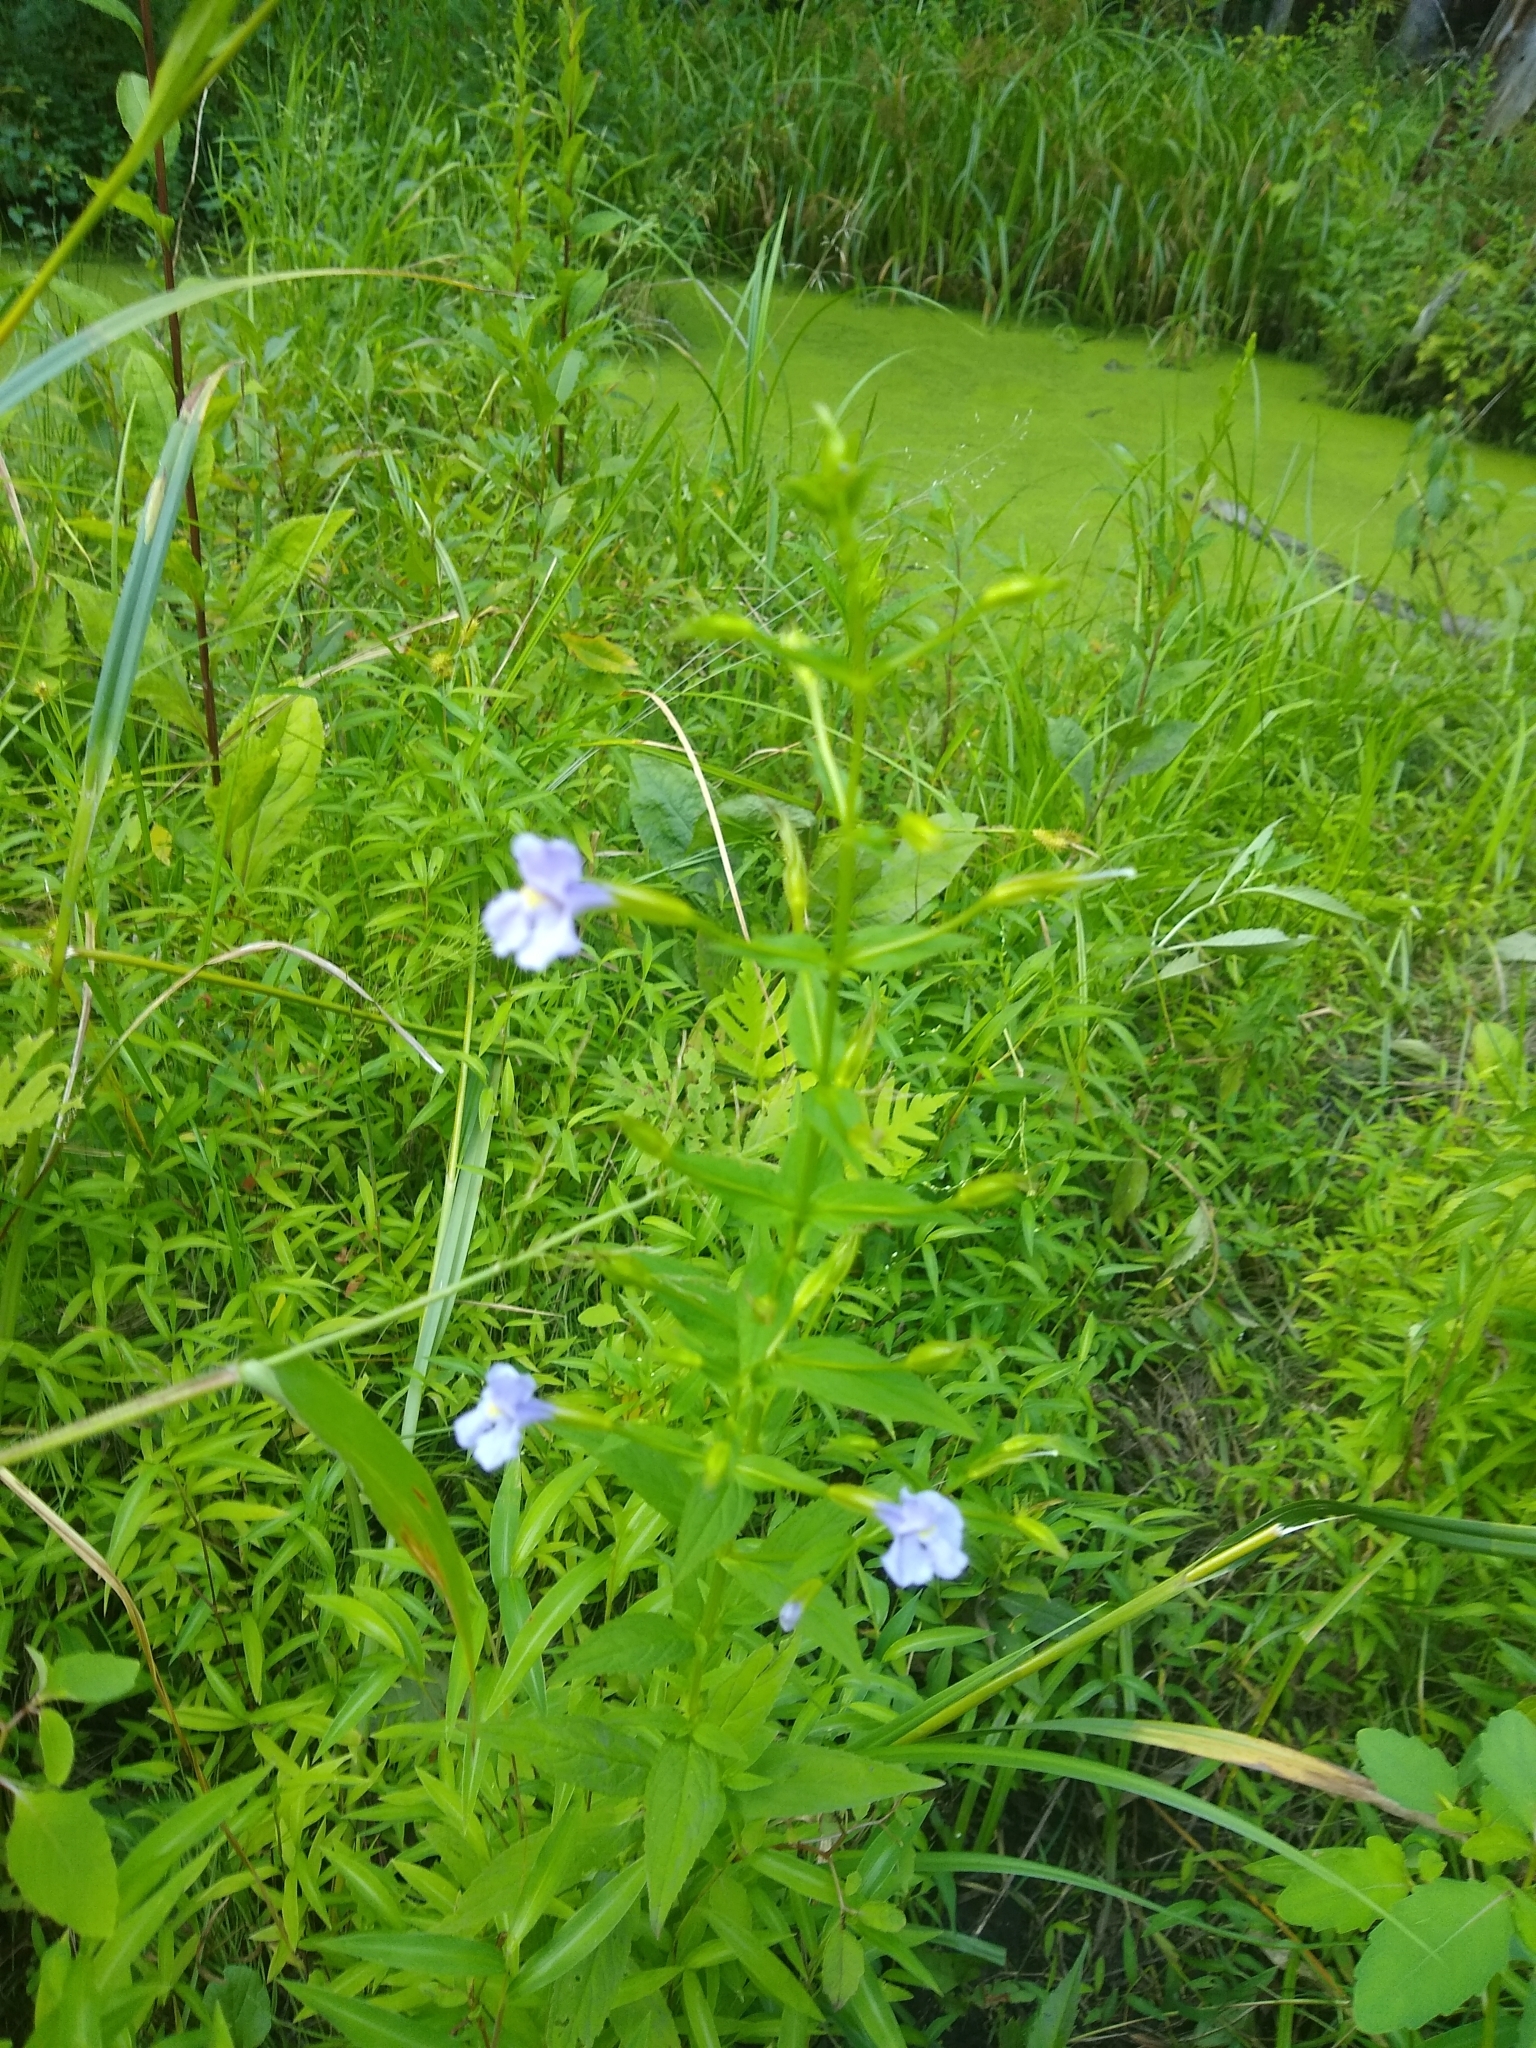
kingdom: Plantae
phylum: Tracheophyta
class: Magnoliopsida
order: Lamiales
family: Phrymaceae
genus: Mimulus
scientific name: Mimulus ringens
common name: Allegheny monkeyflower
